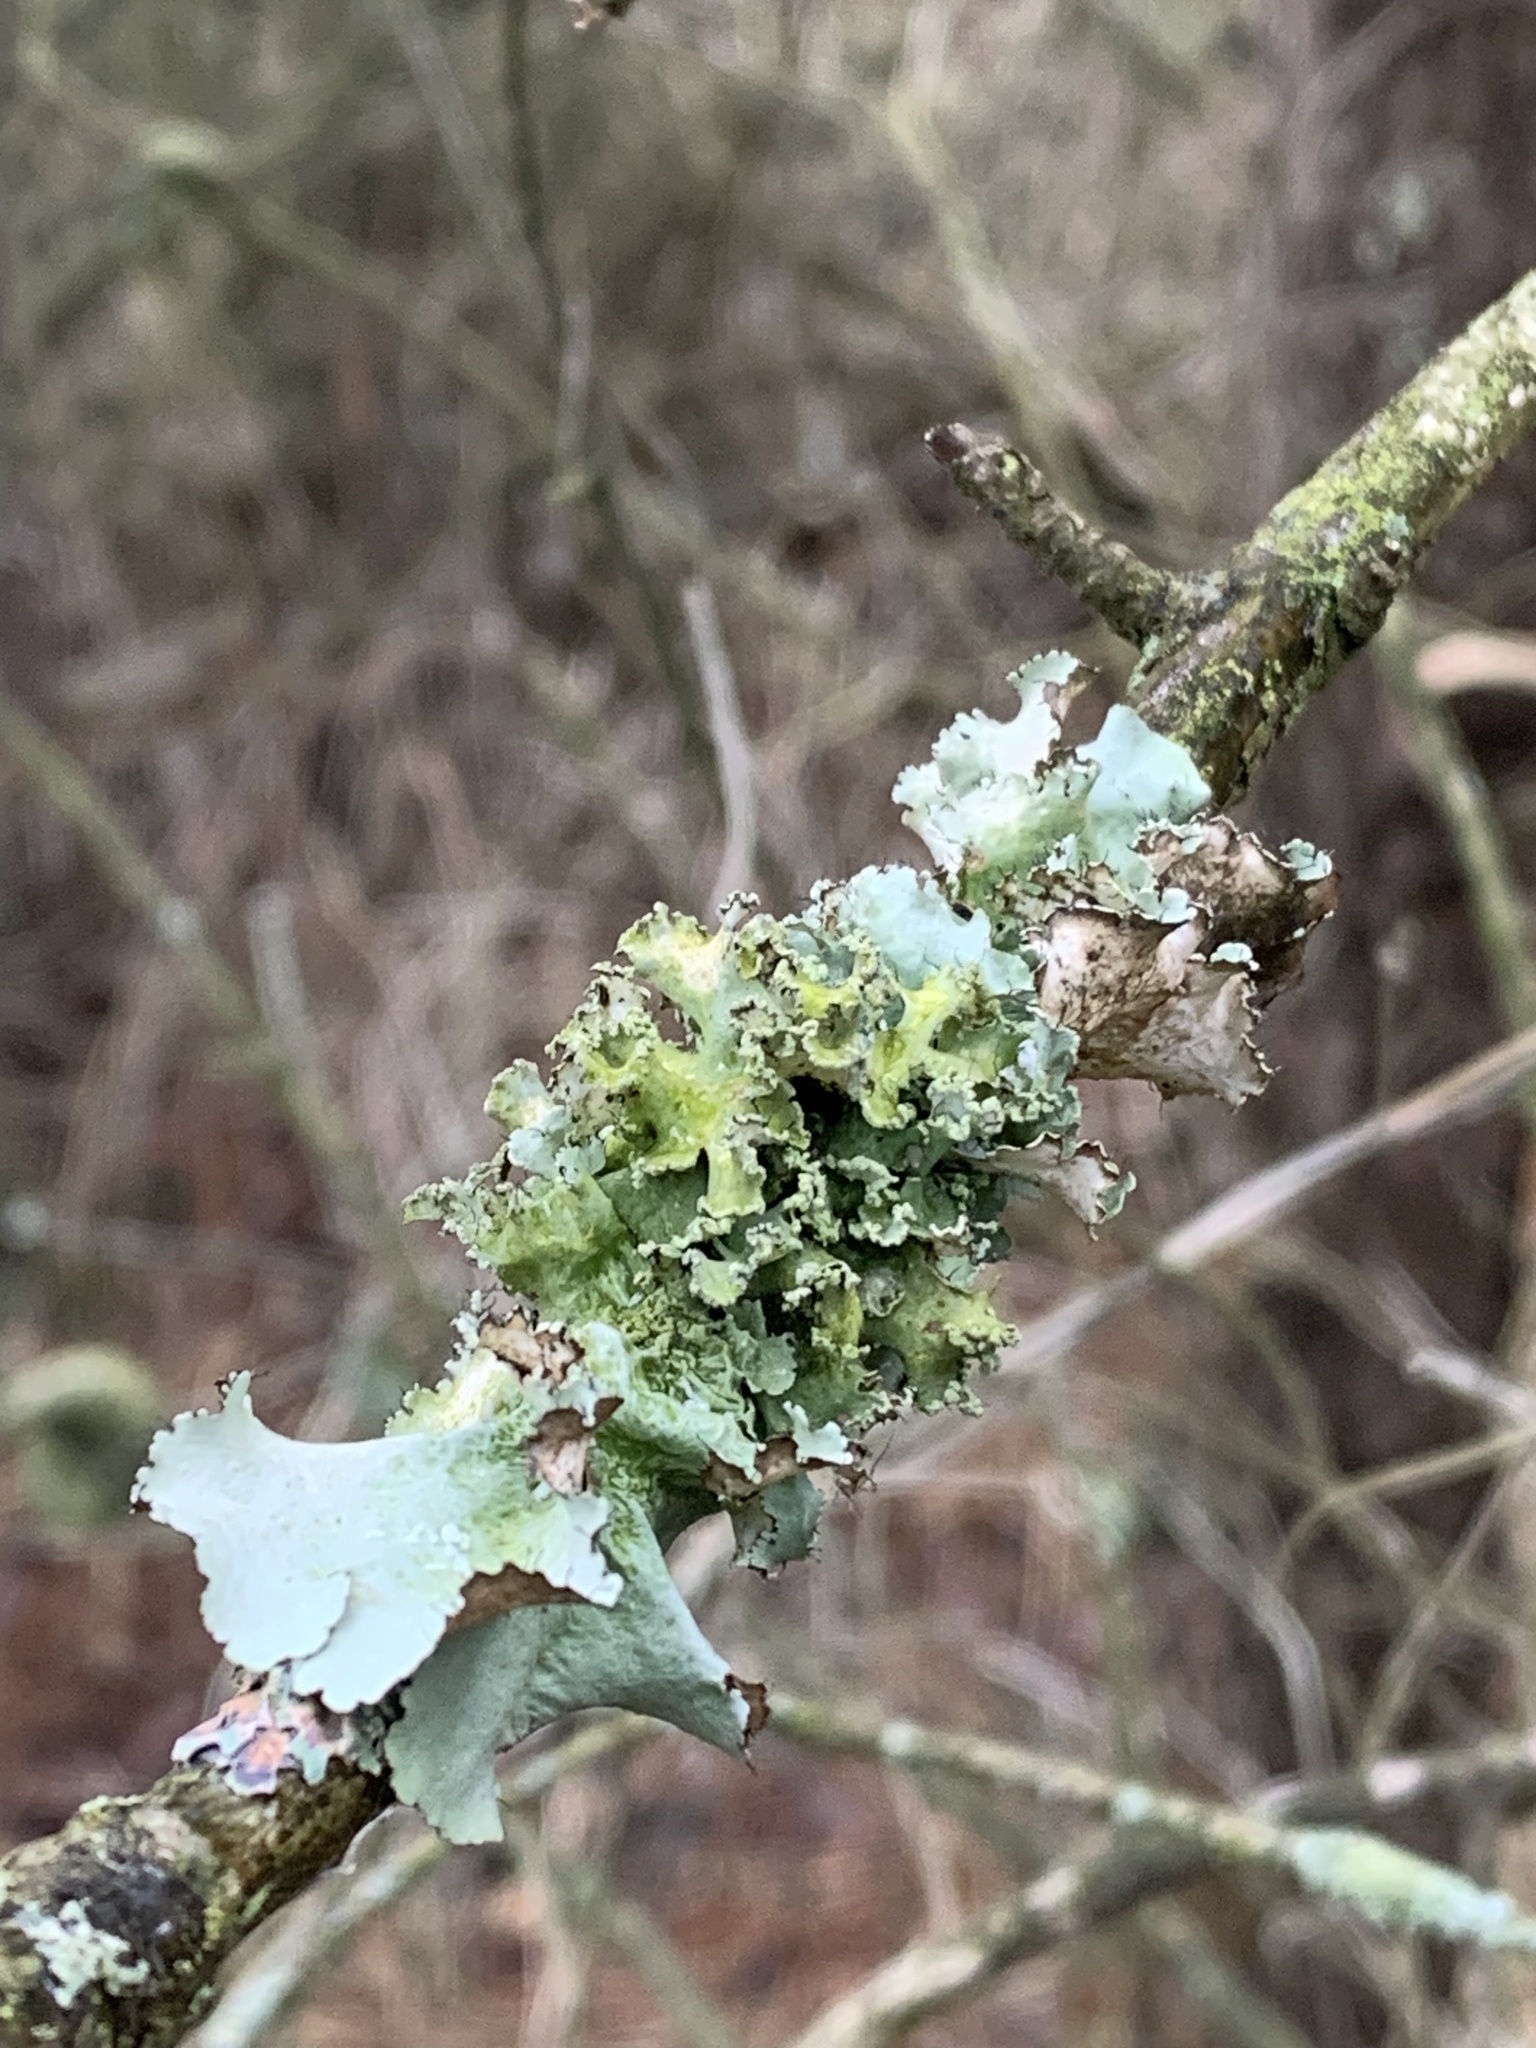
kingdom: Fungi
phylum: Ascomycota
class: Lecanoromycetes
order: Lecanorales
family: Parmeliaceae
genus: Parmotrema
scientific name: Parmotrema hypotropum
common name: Powdered ruffle lichen
